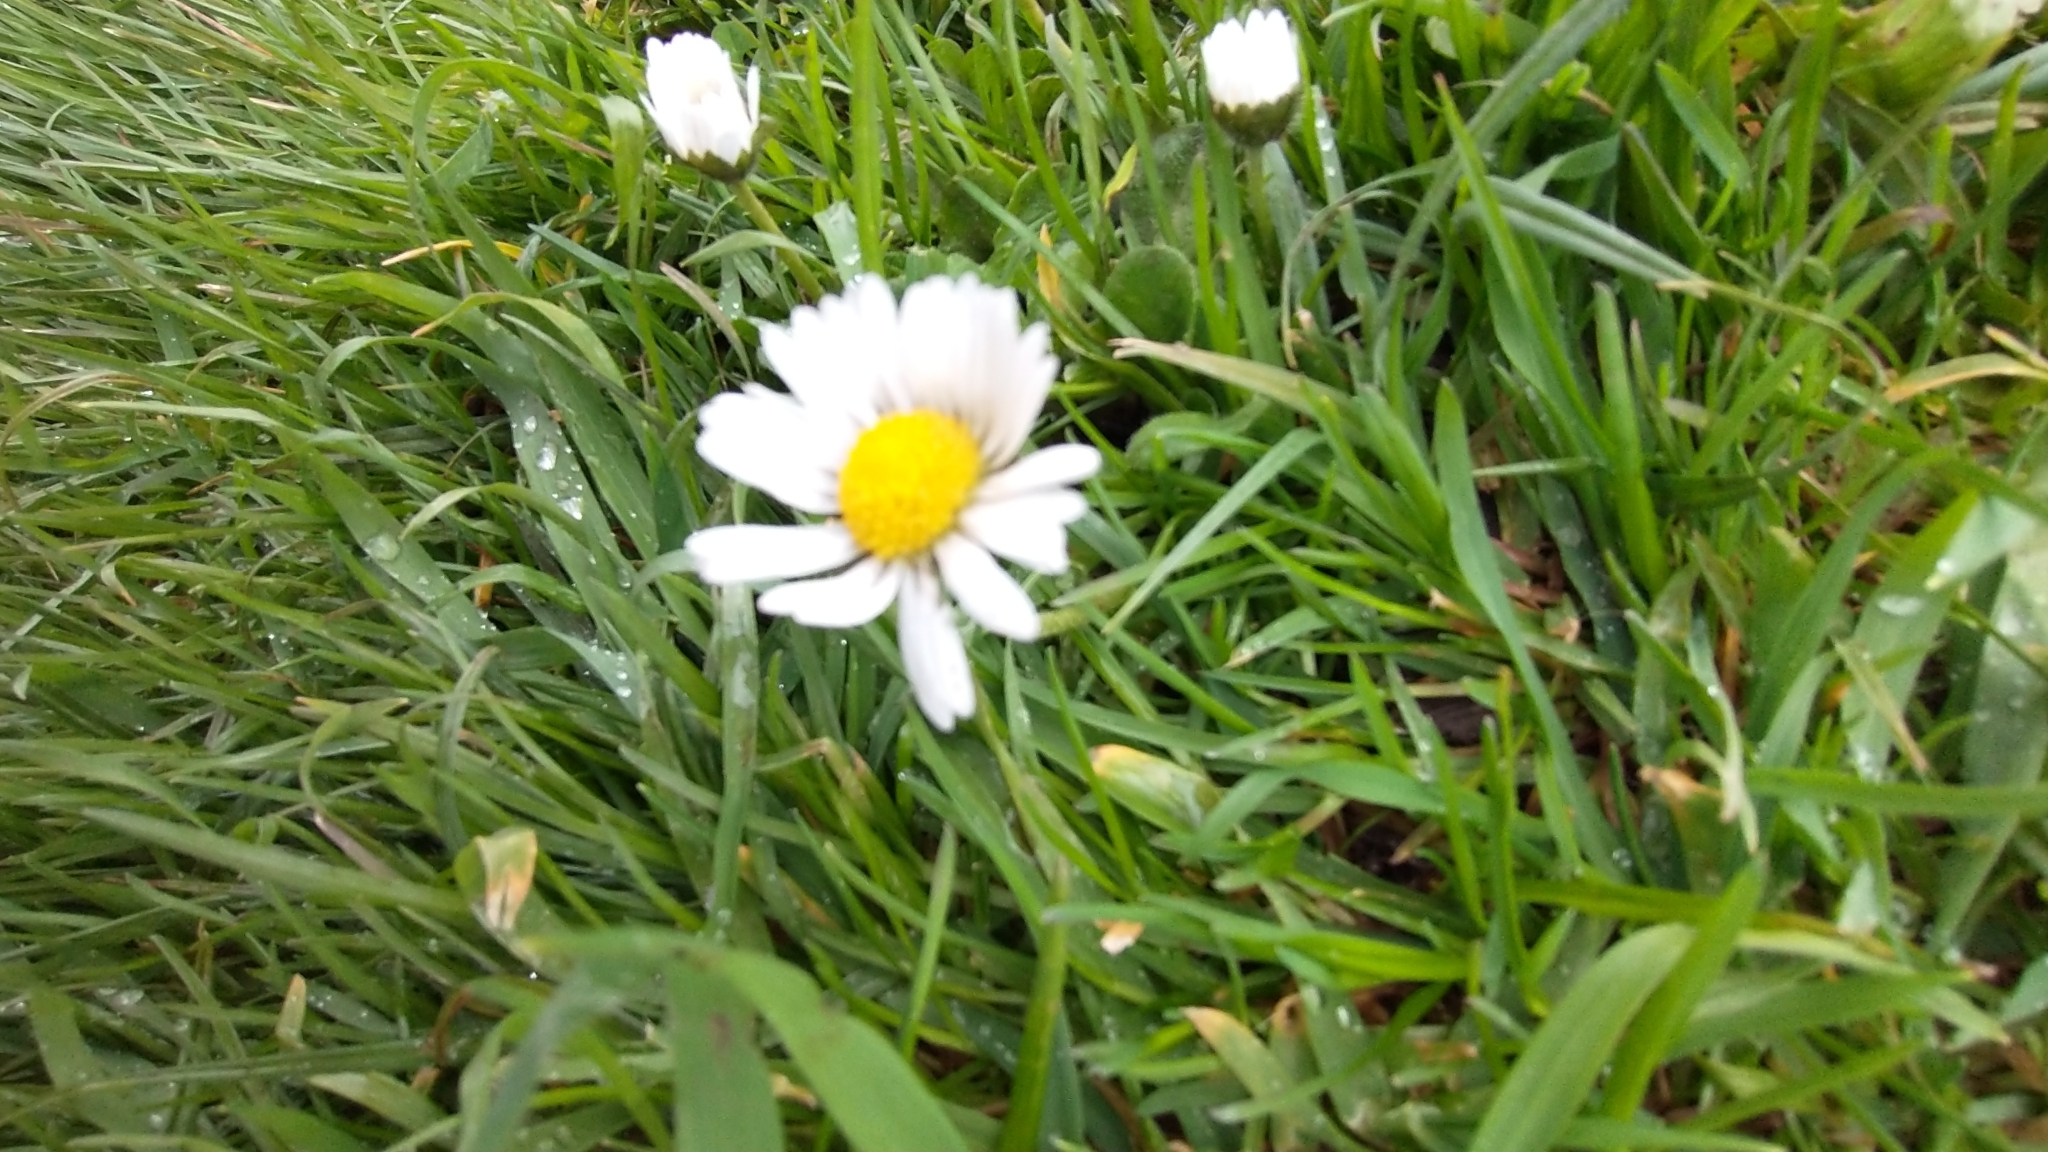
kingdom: Plantae
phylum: Tracheophyta
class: Magnoliopsida
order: Asterales
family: Asteraceae
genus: Bellis
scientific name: Bellis perennis
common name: Lawndaisy
